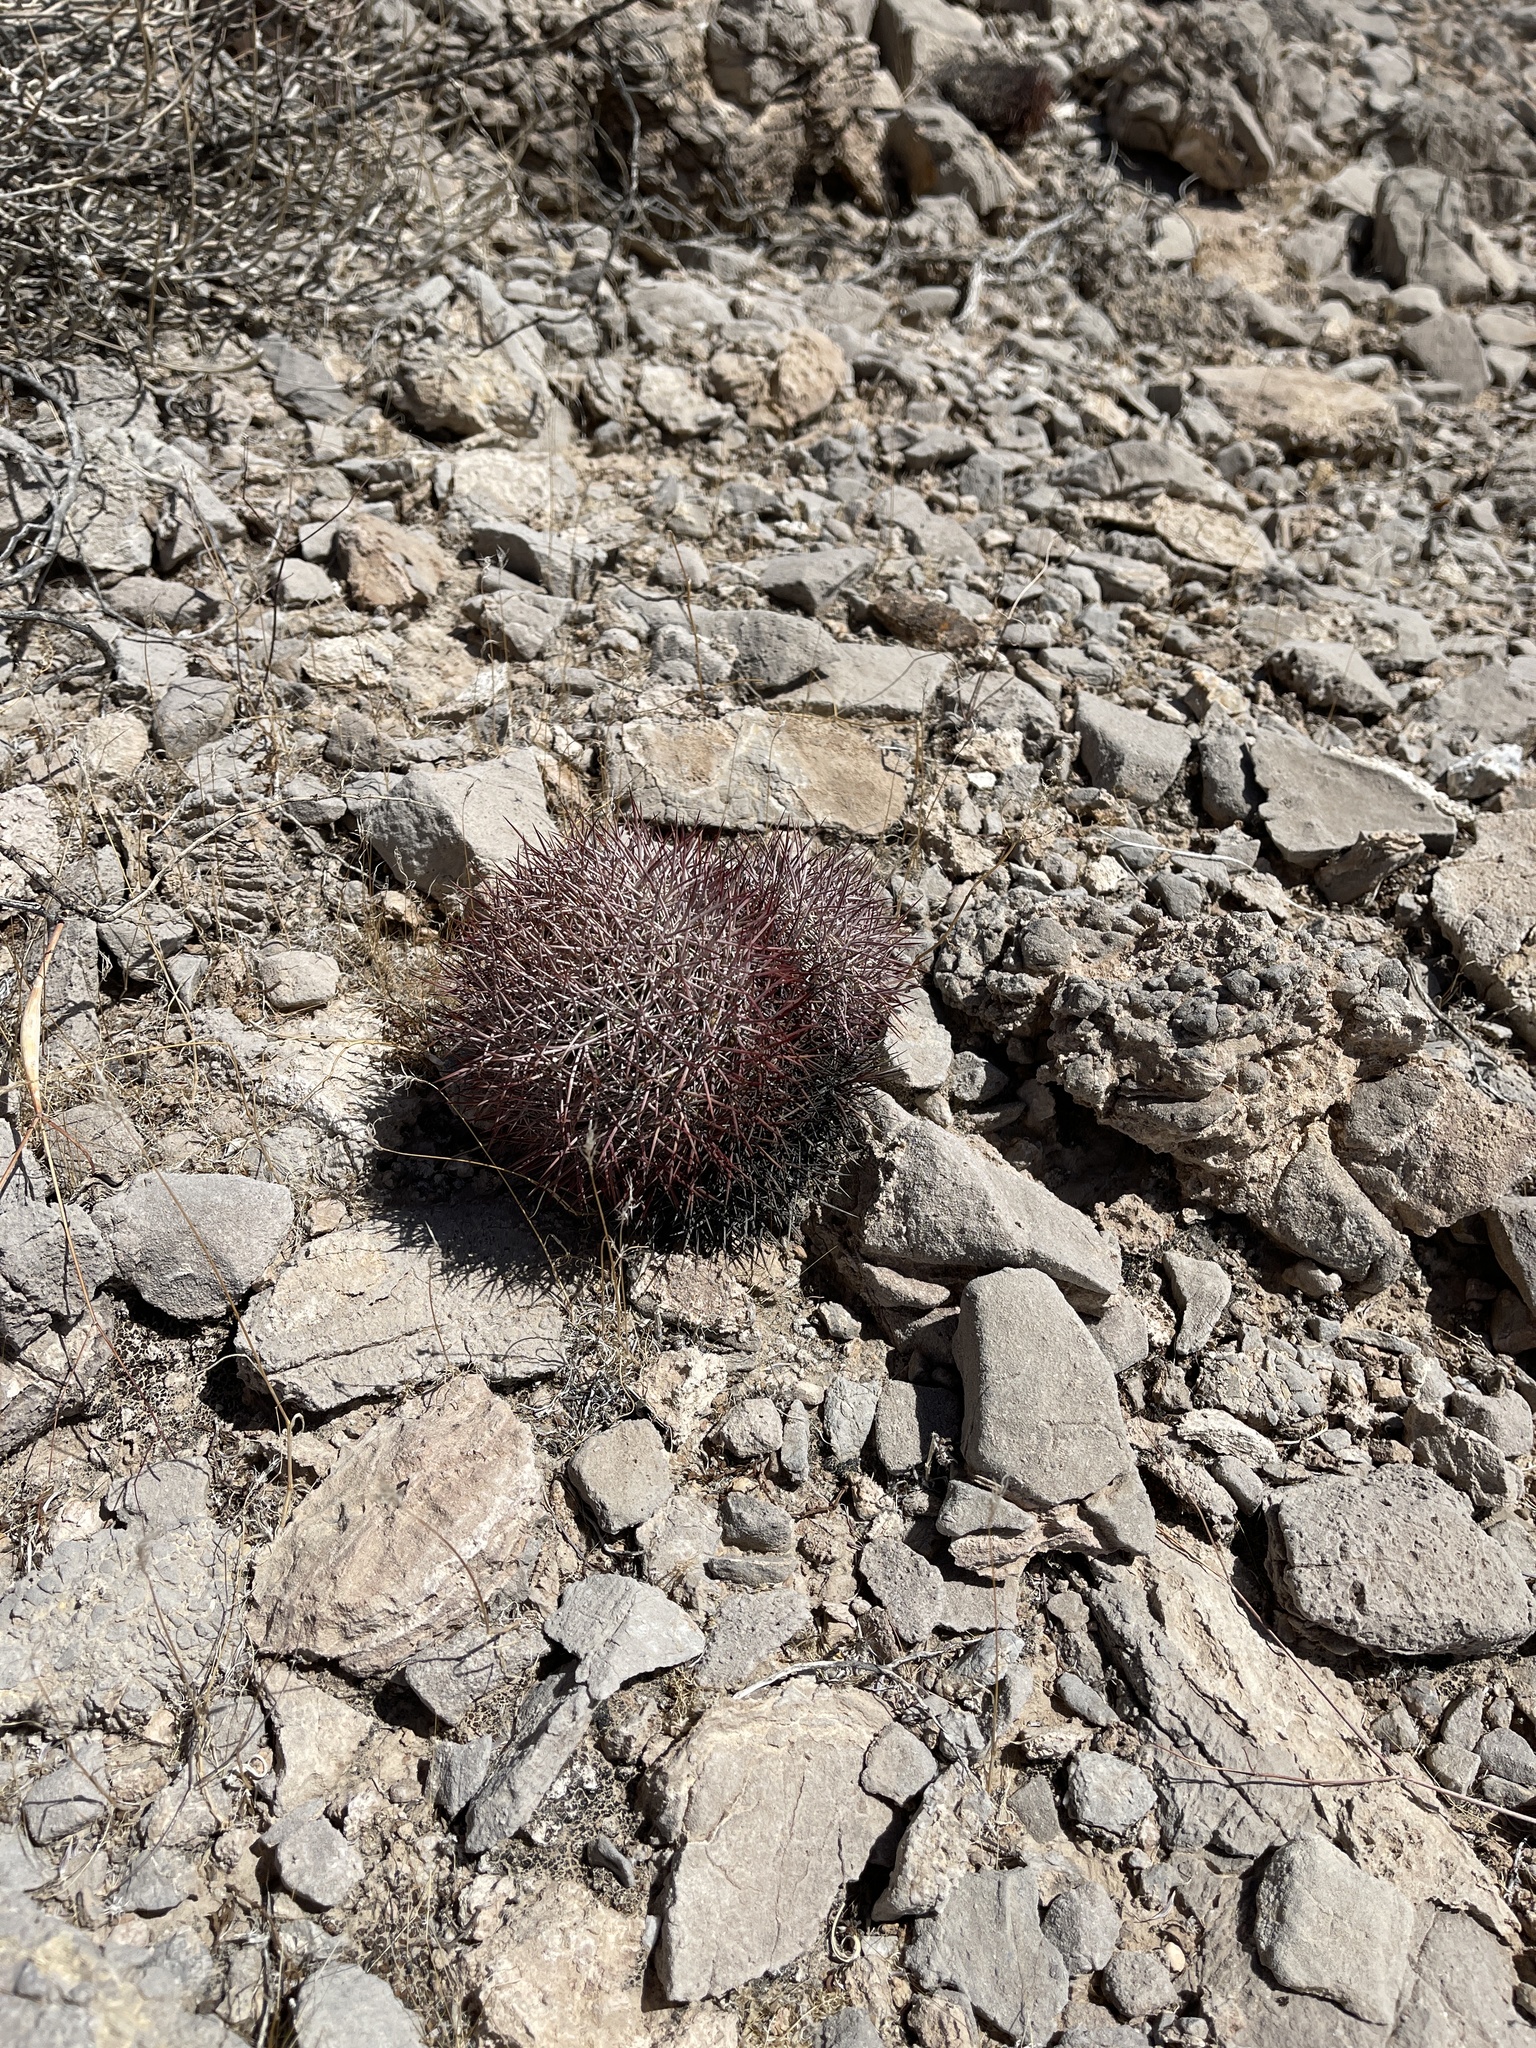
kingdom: Plantae
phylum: Tracheophyta
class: Magnoliopsida
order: Caryophyllales
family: Cactaceae
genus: Sclerocactus
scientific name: Sclerocactus johnsonii
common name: Eight-spine fishhook cactus
